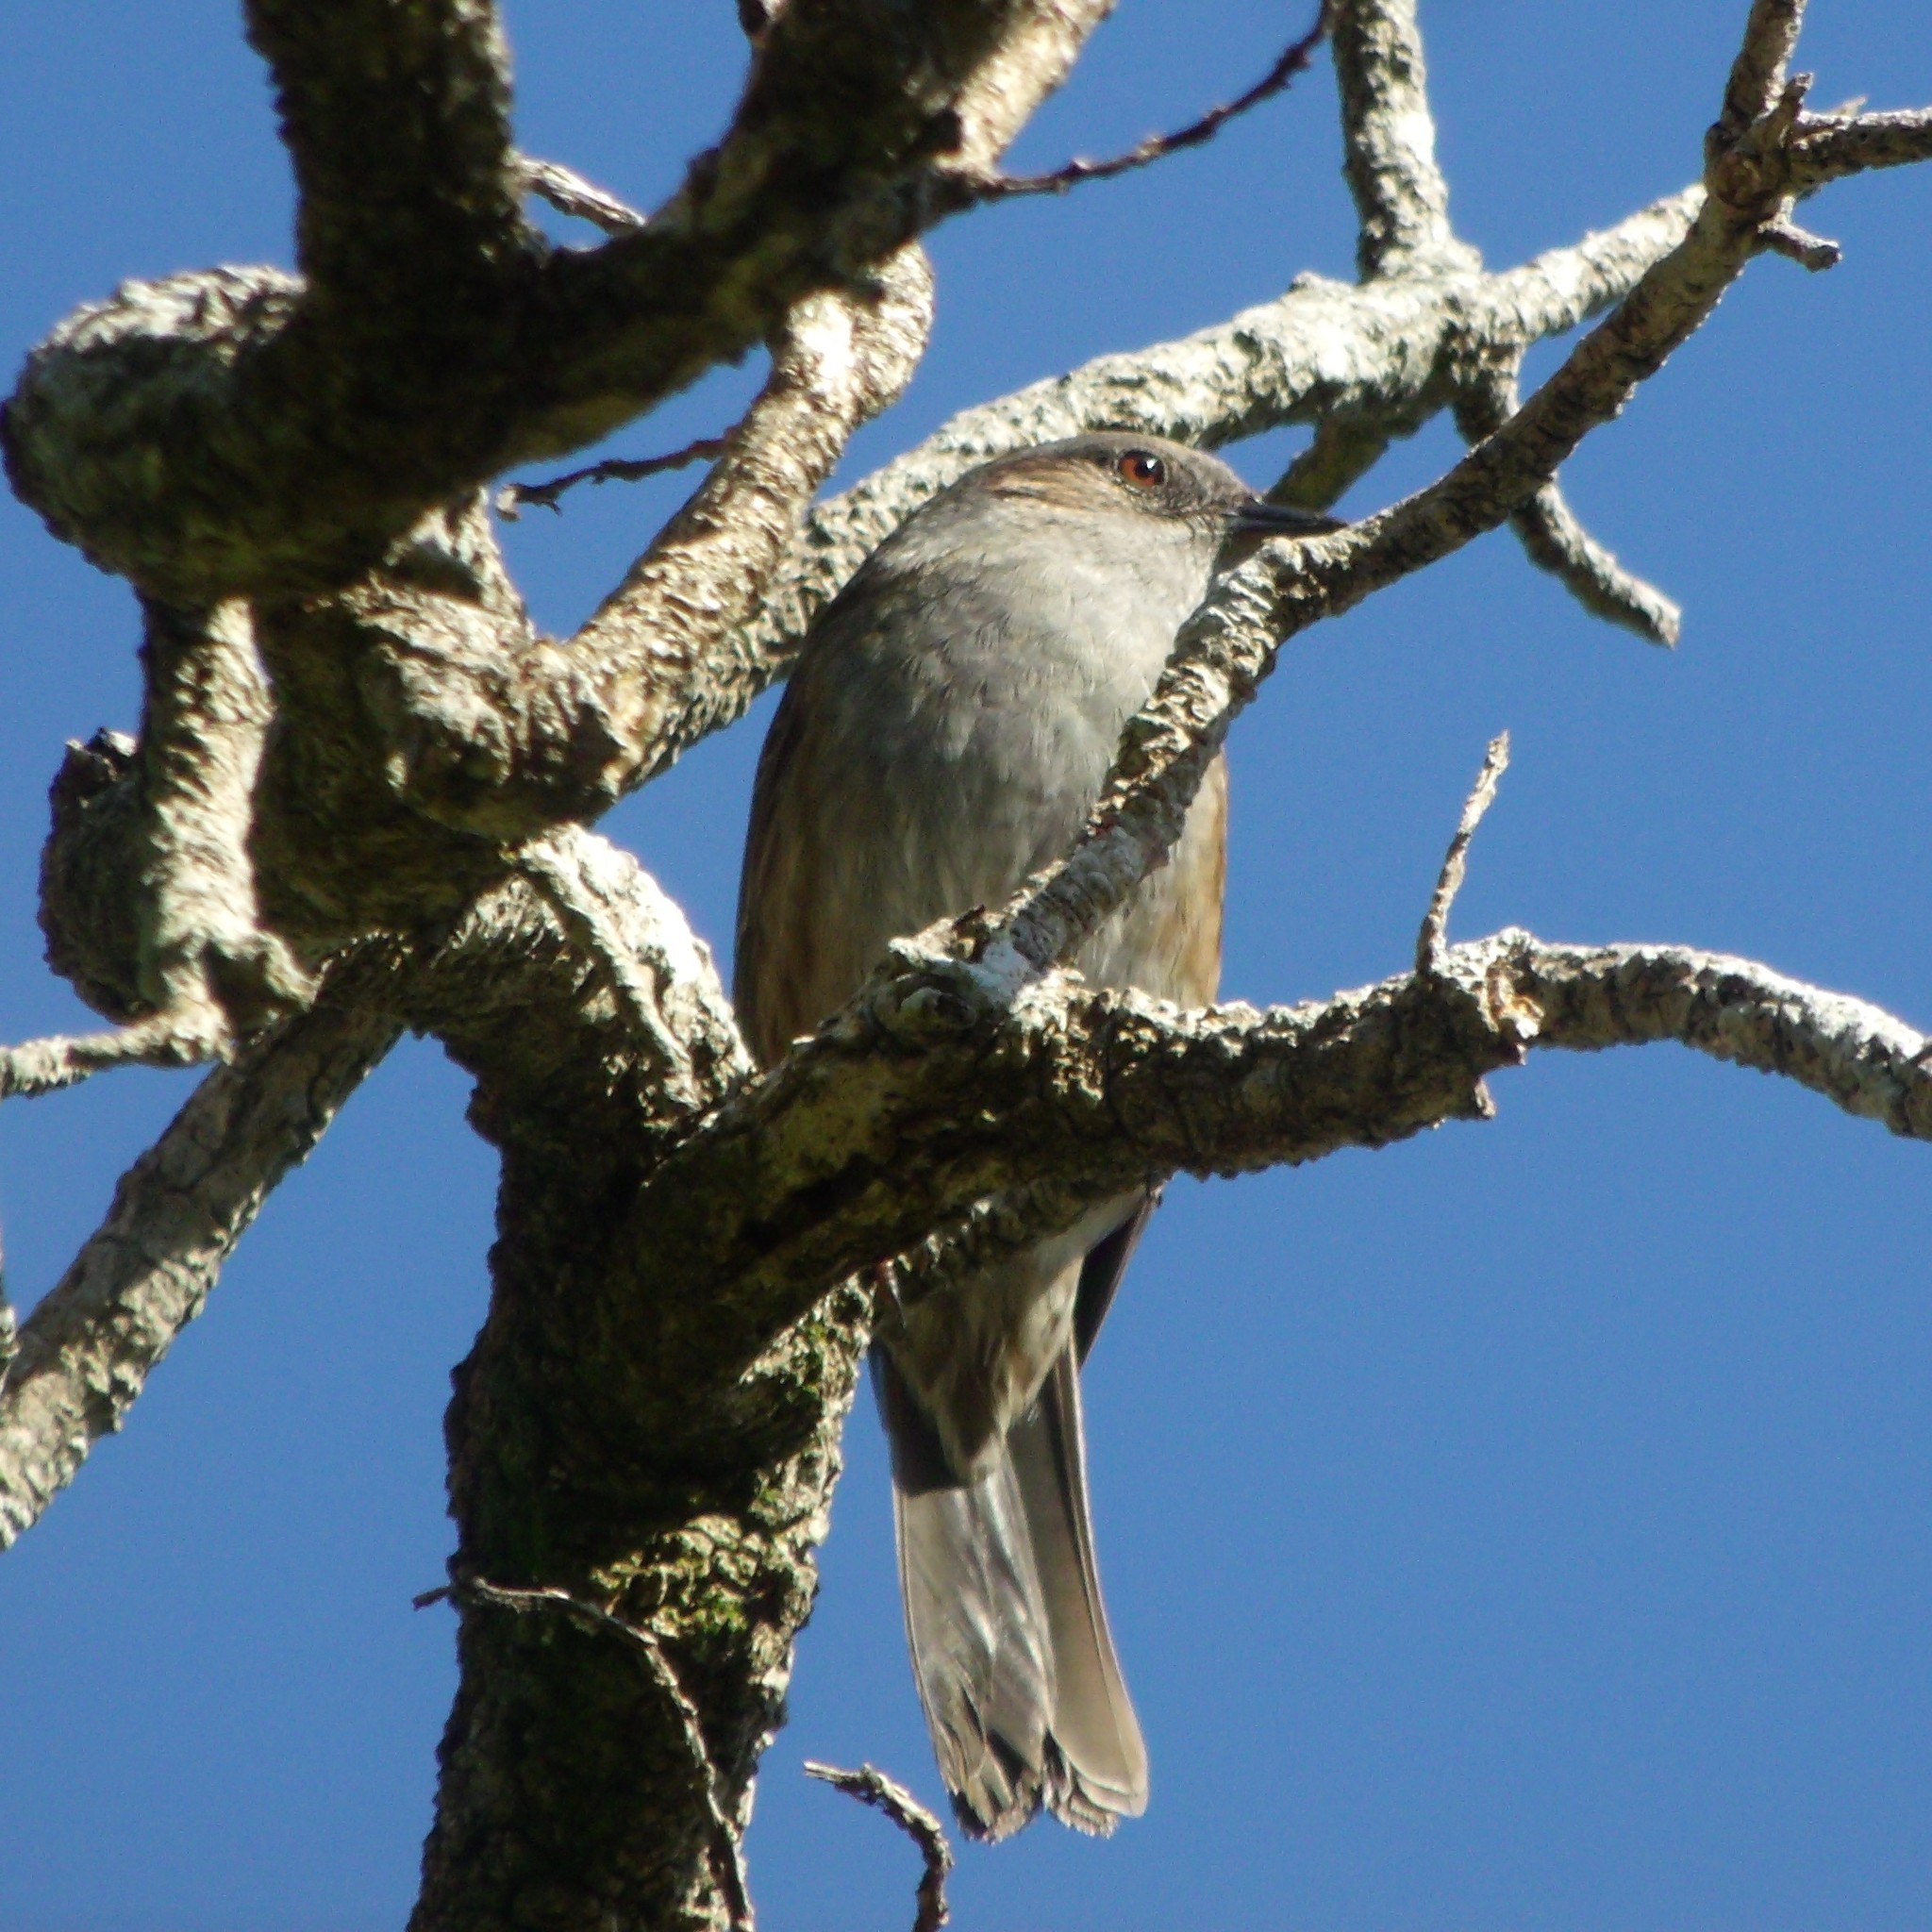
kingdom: Animalia
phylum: Chordata
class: Aves
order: Passeriformes
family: Prunellidae
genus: Prunella
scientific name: Prunella modularis
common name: Dunnock
